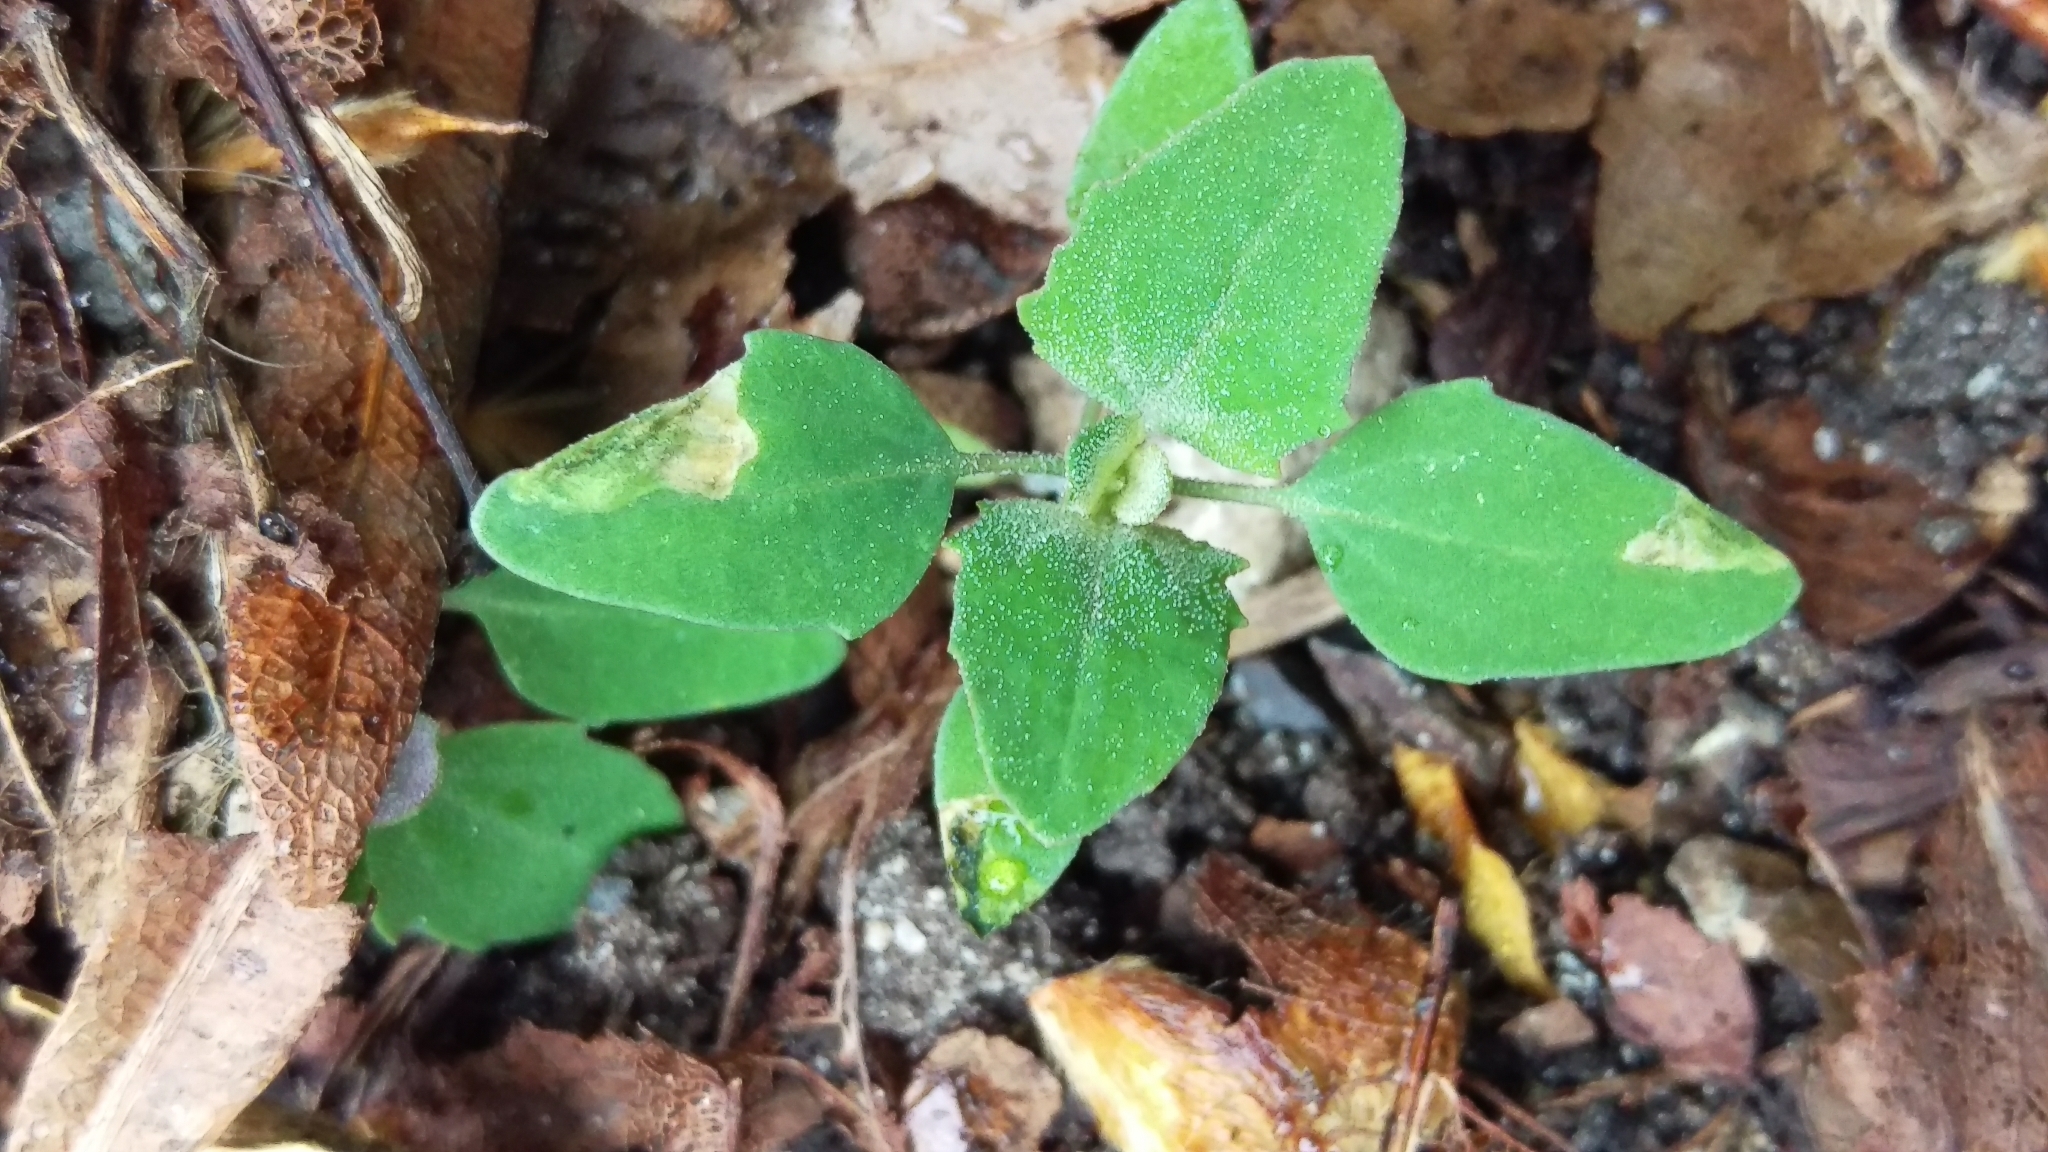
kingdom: Plantae
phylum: Tracheophyta
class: Magnoliopsida
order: Caryophyllales
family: Amaranthaceae
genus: Chenopodium
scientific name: Chenopodium album
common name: Fat-hen
